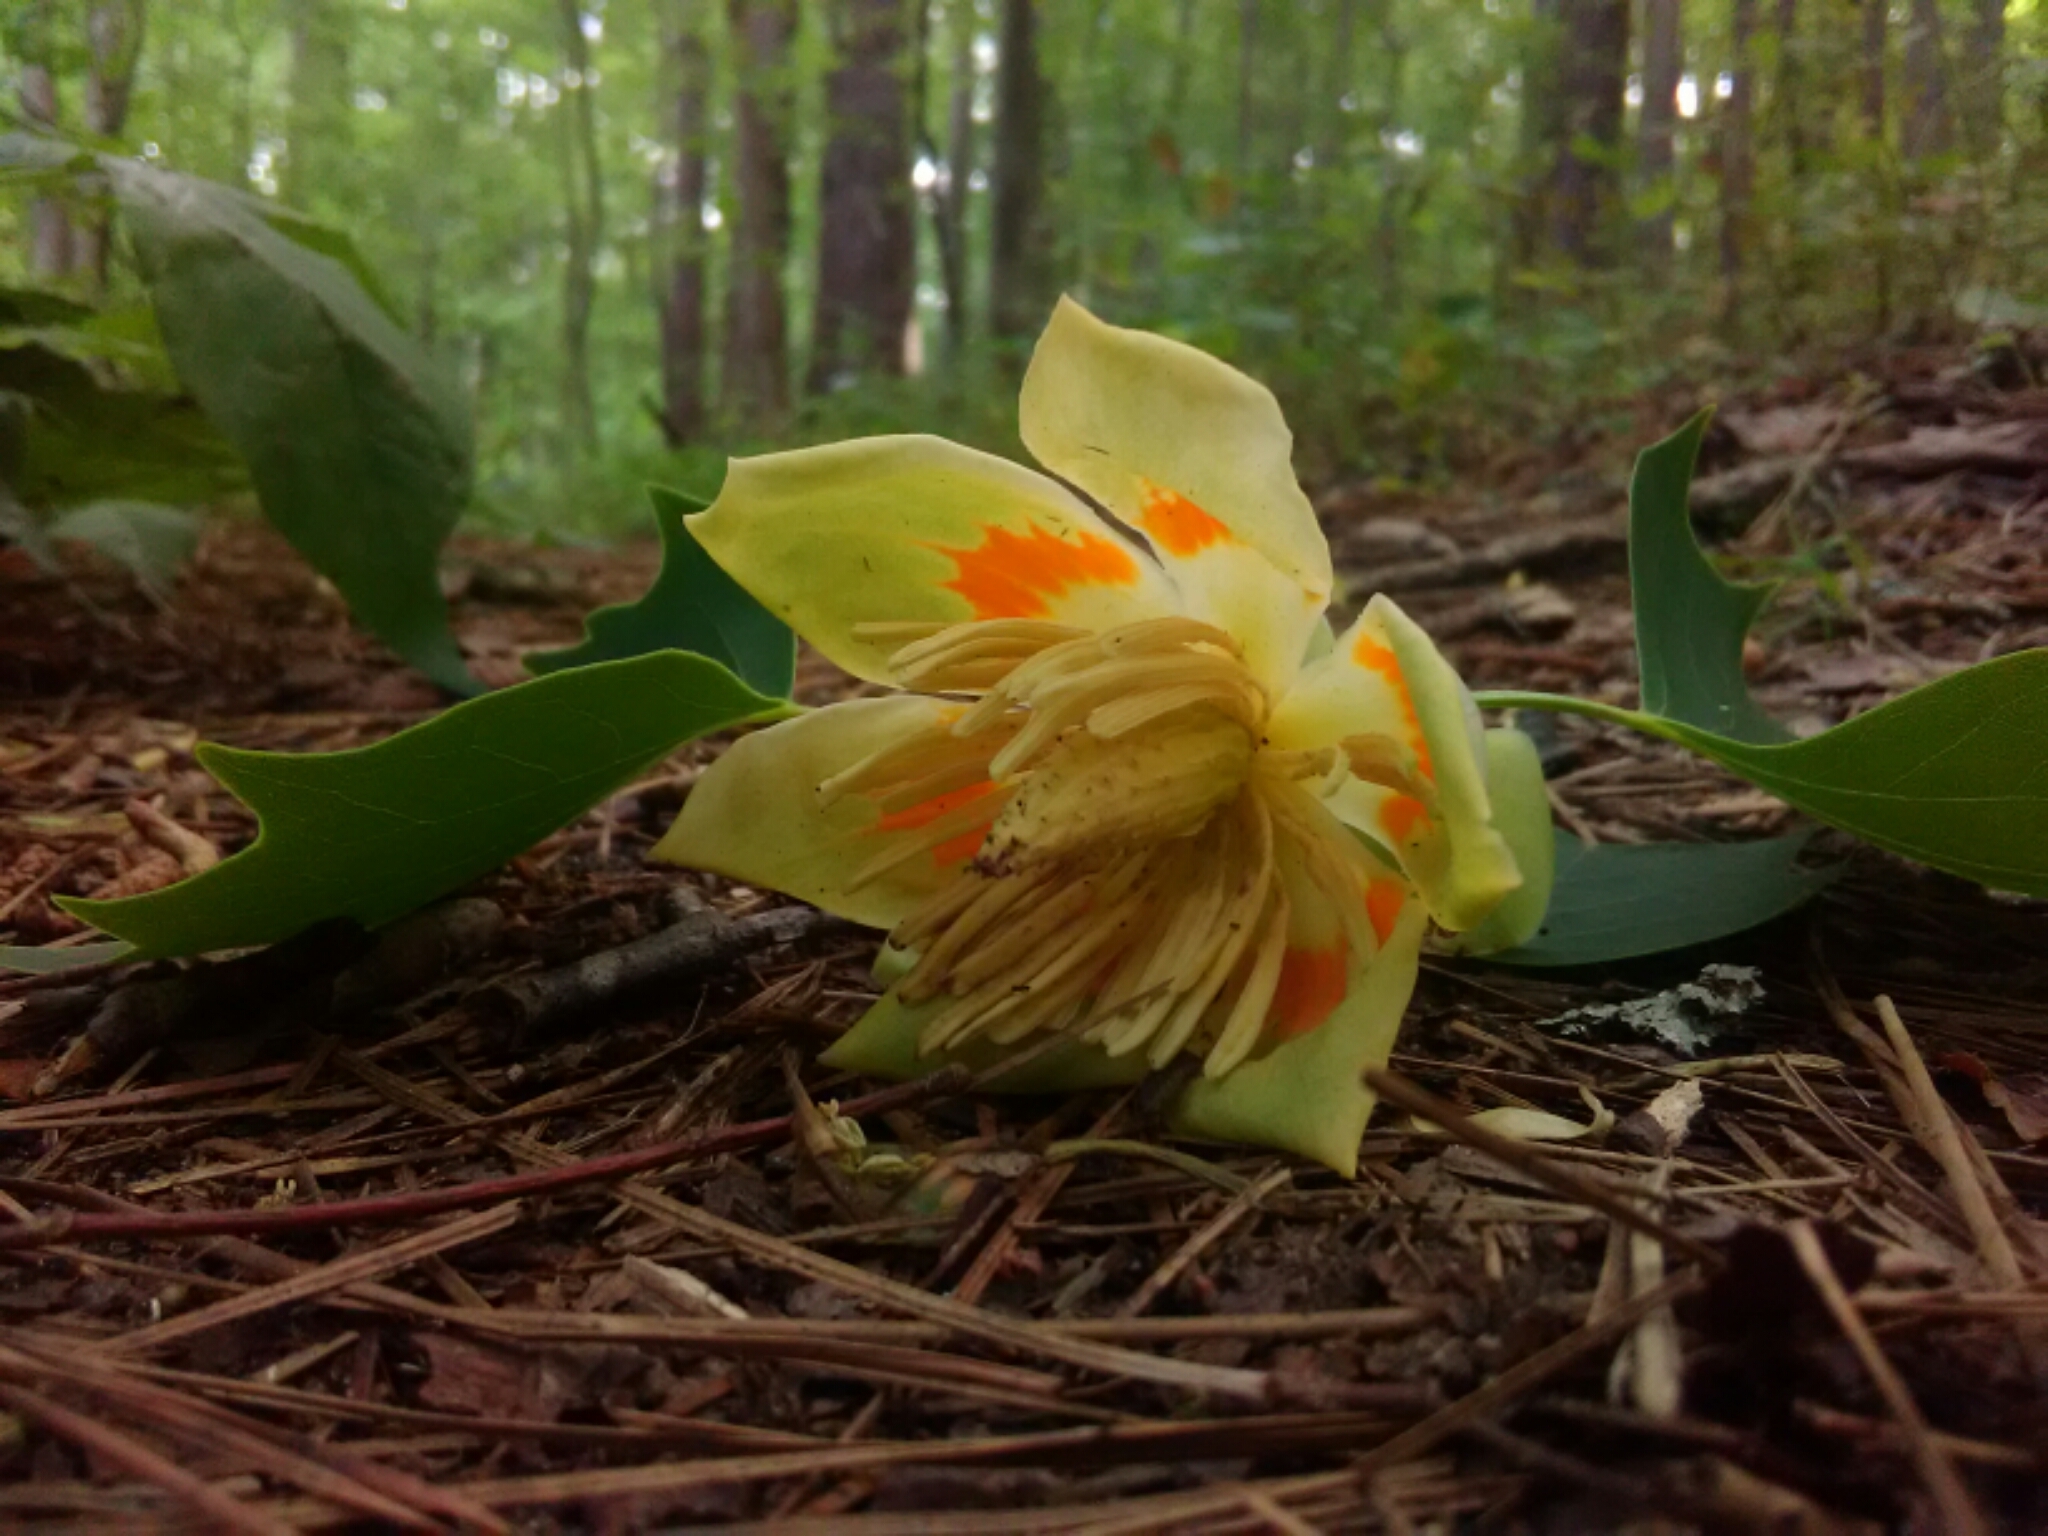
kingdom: Plantae
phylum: Tracheophyta
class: Magnoliopsida
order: Magnoliales
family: Magnoliaceae
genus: Liriodendron
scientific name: Liriodendron tulipifera
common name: Tulip tree
